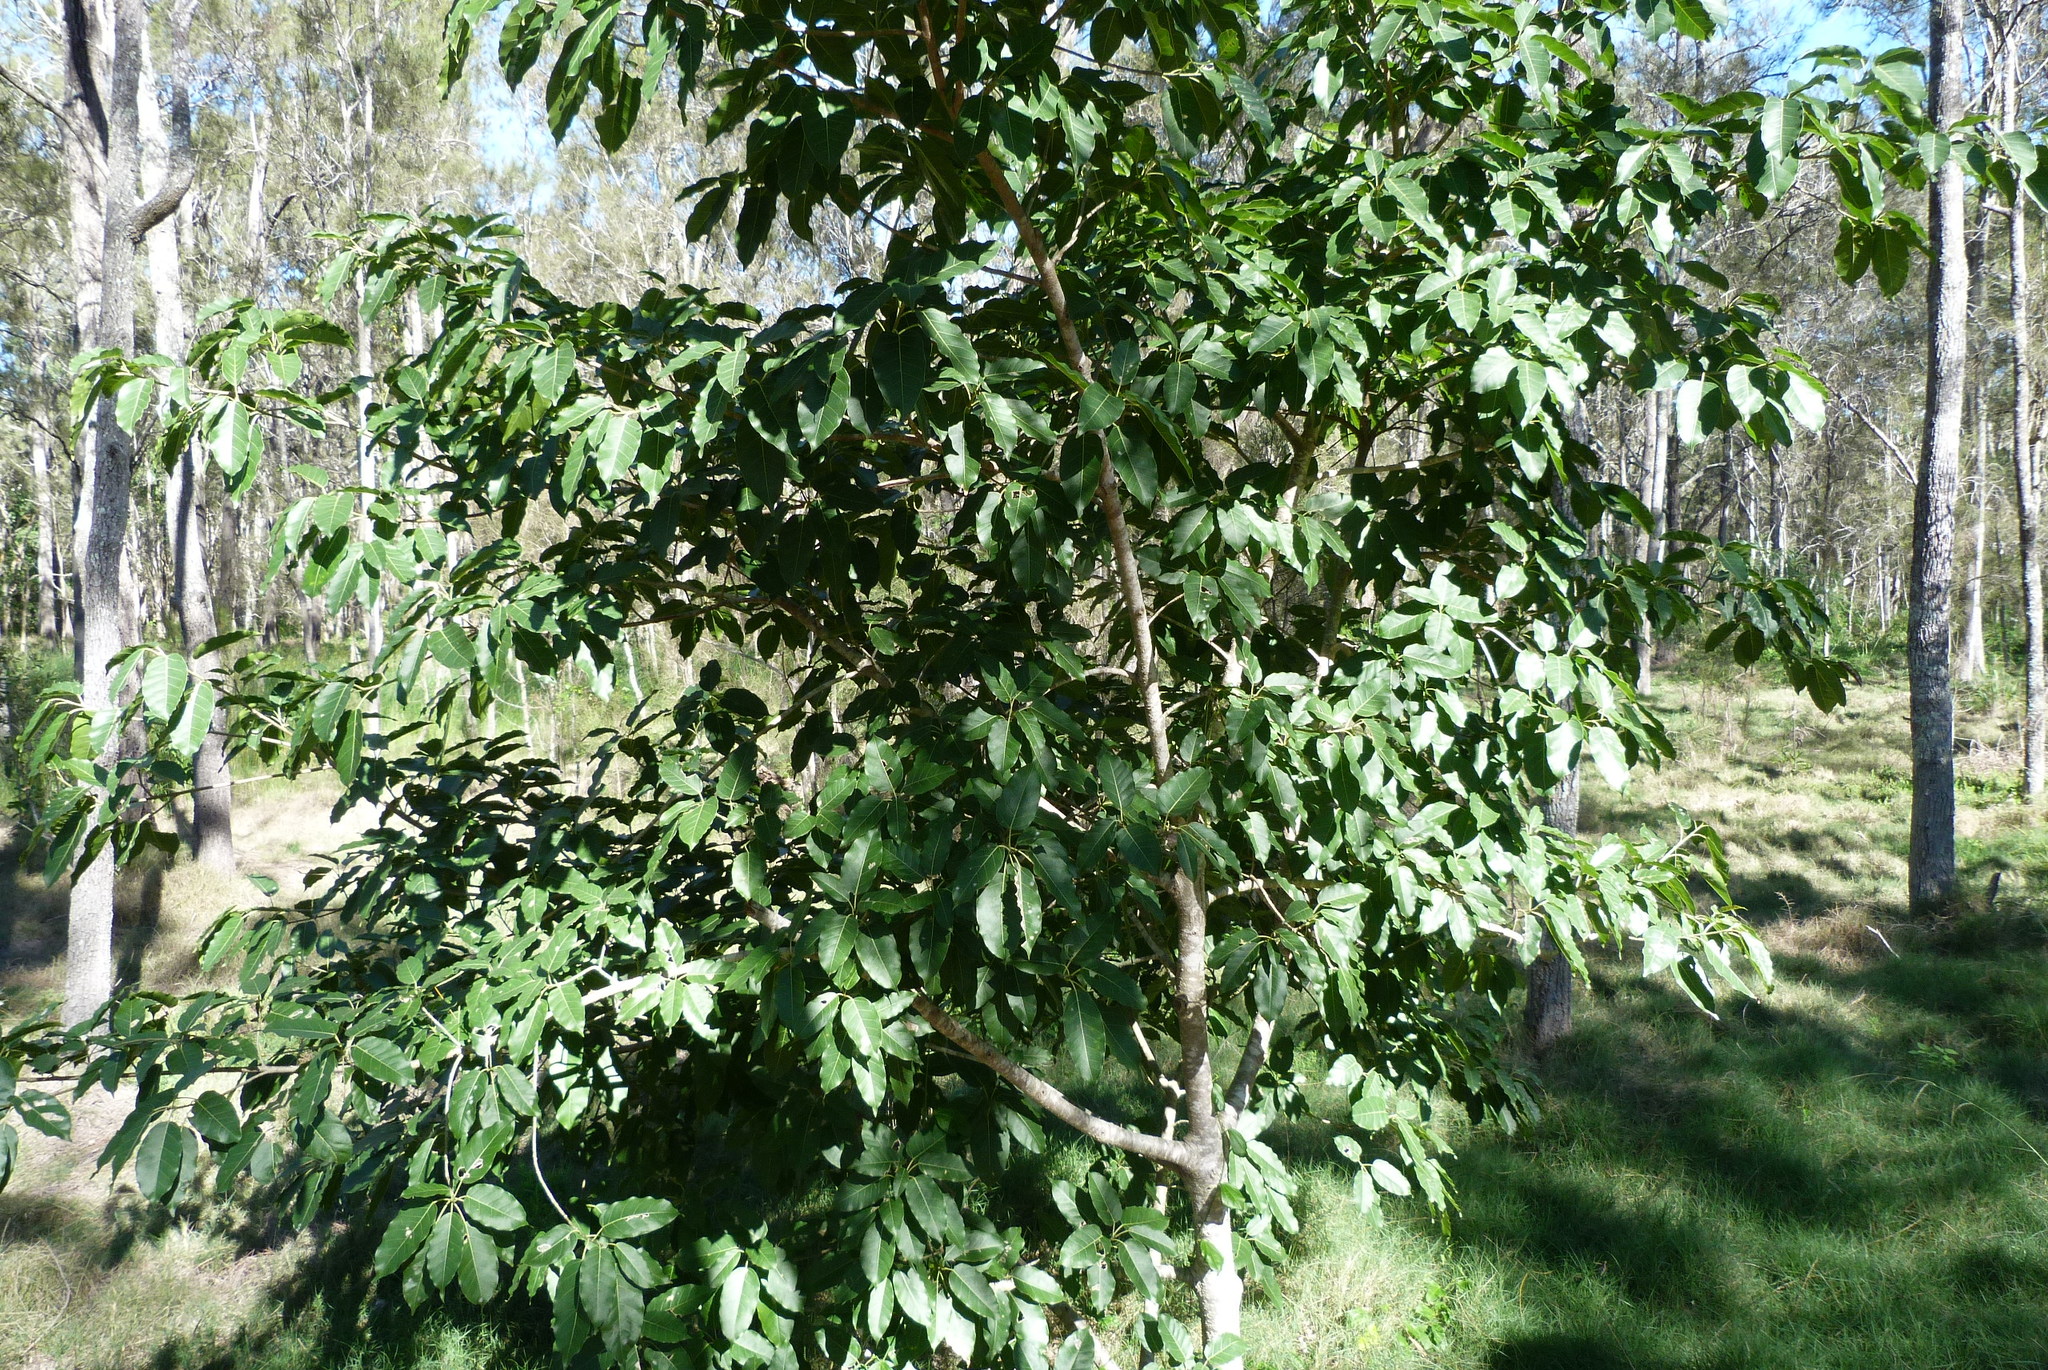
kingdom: Plantae
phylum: Tracheophyta
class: Magnoliopsida
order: Rosales
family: Moraceae
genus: Ficus
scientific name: Ficus virens
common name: Spotted fig
